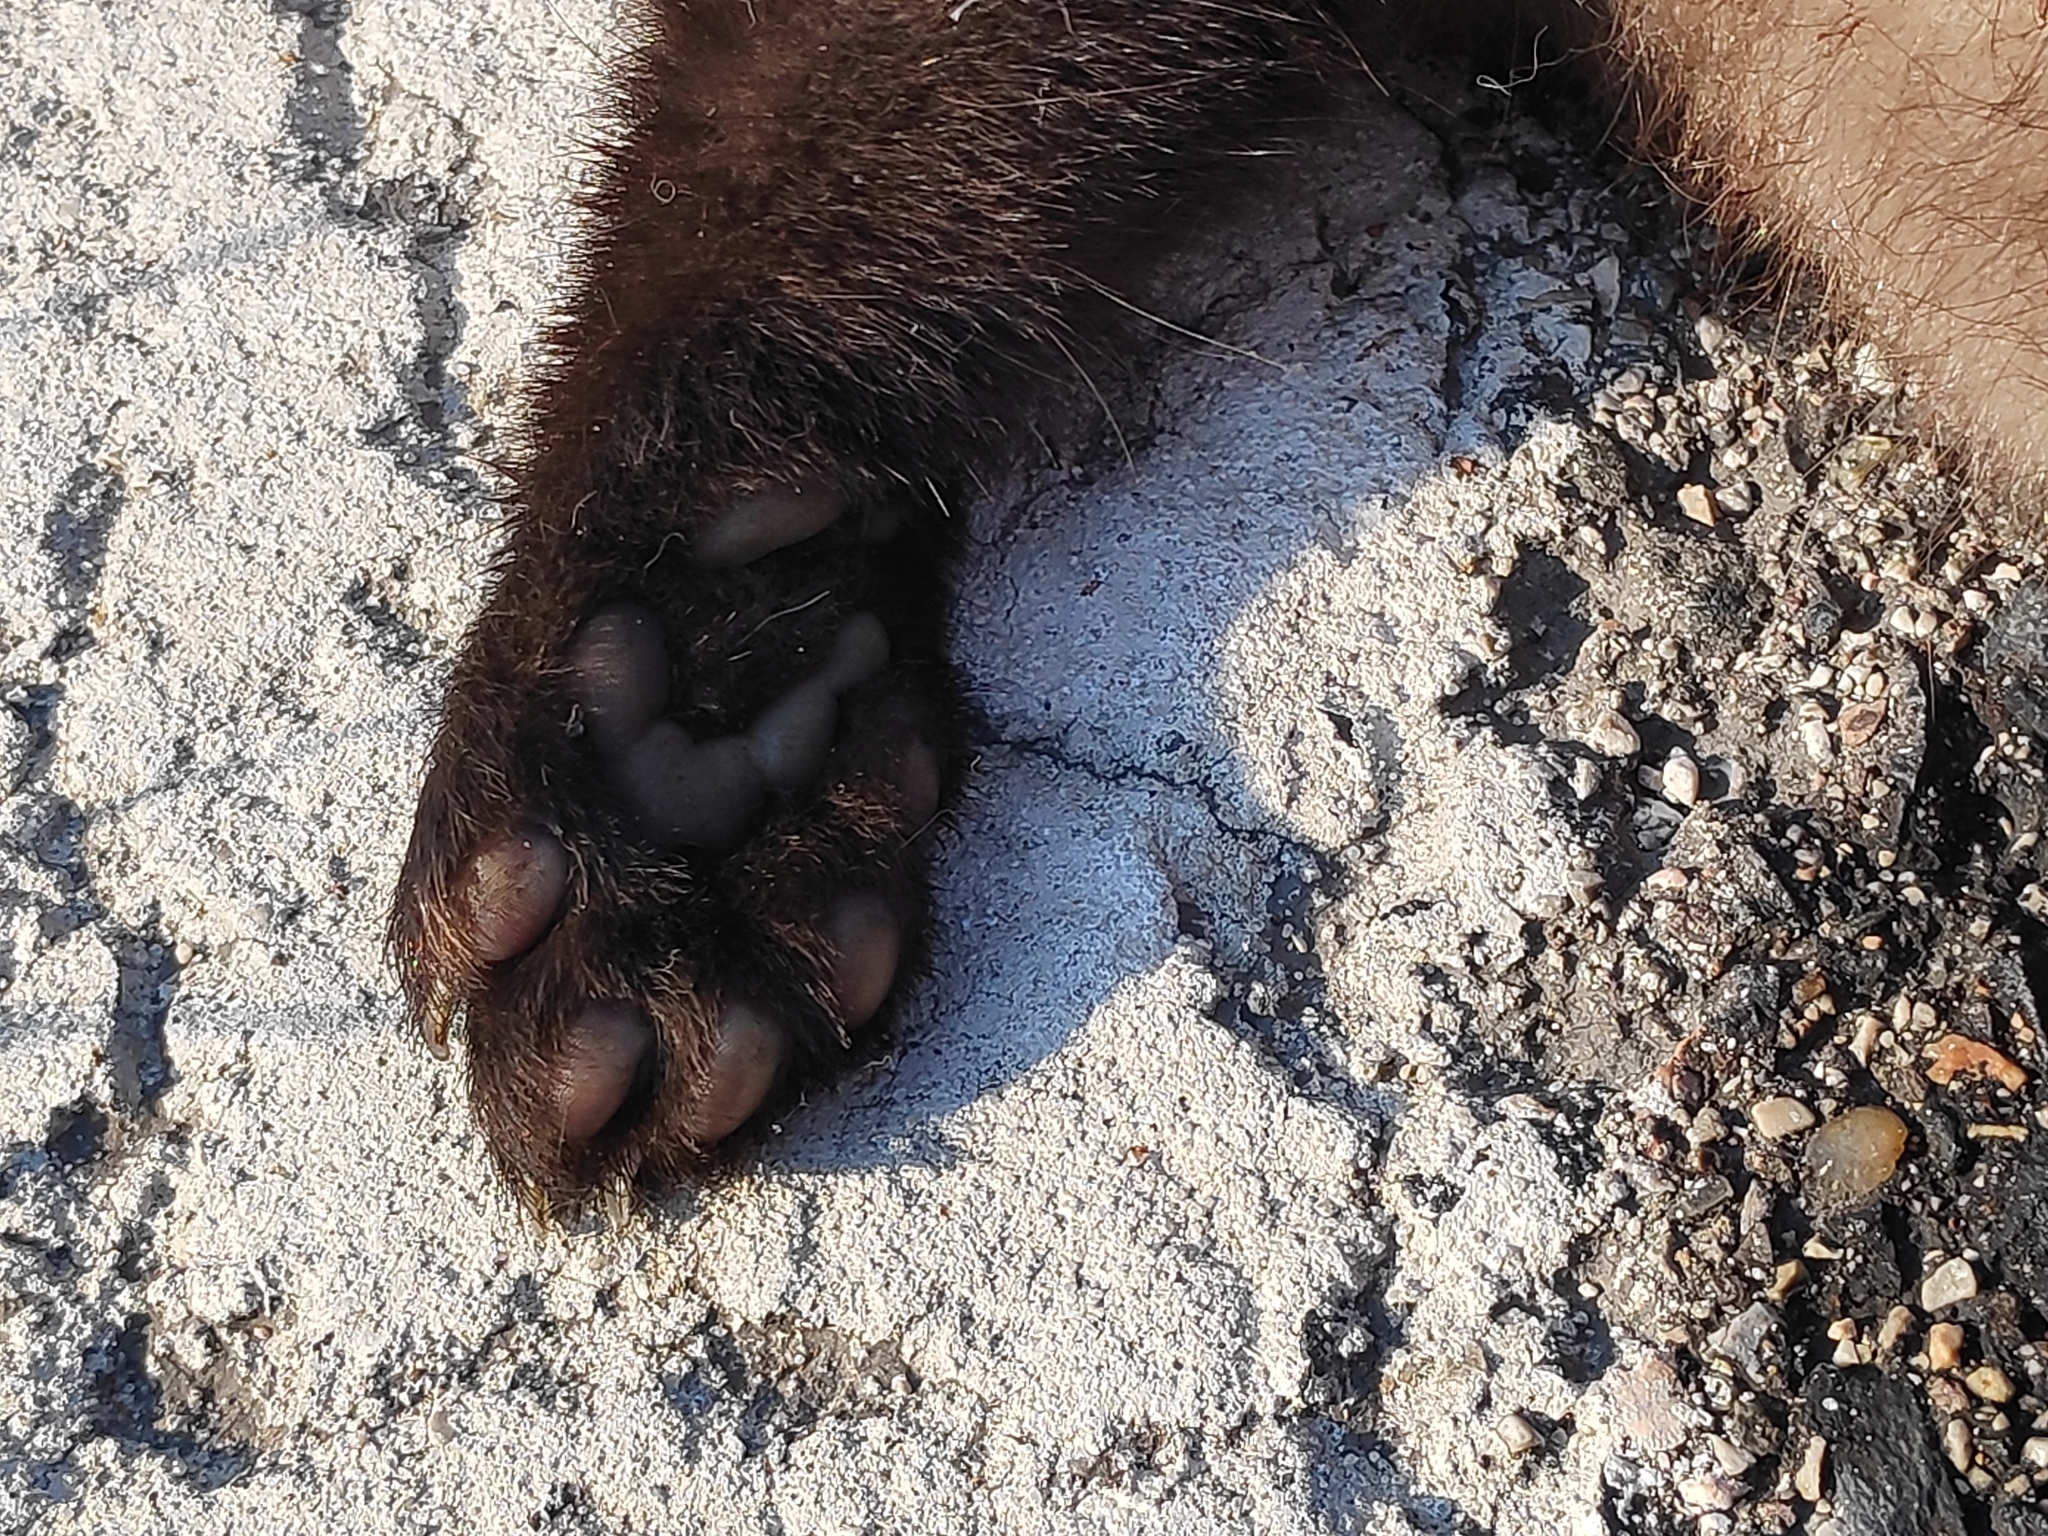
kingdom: Animalia
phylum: Chordata
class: Mammalia
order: Carnivora
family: Mustelidae
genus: Martes
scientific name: Martes foina
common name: Beech marten
